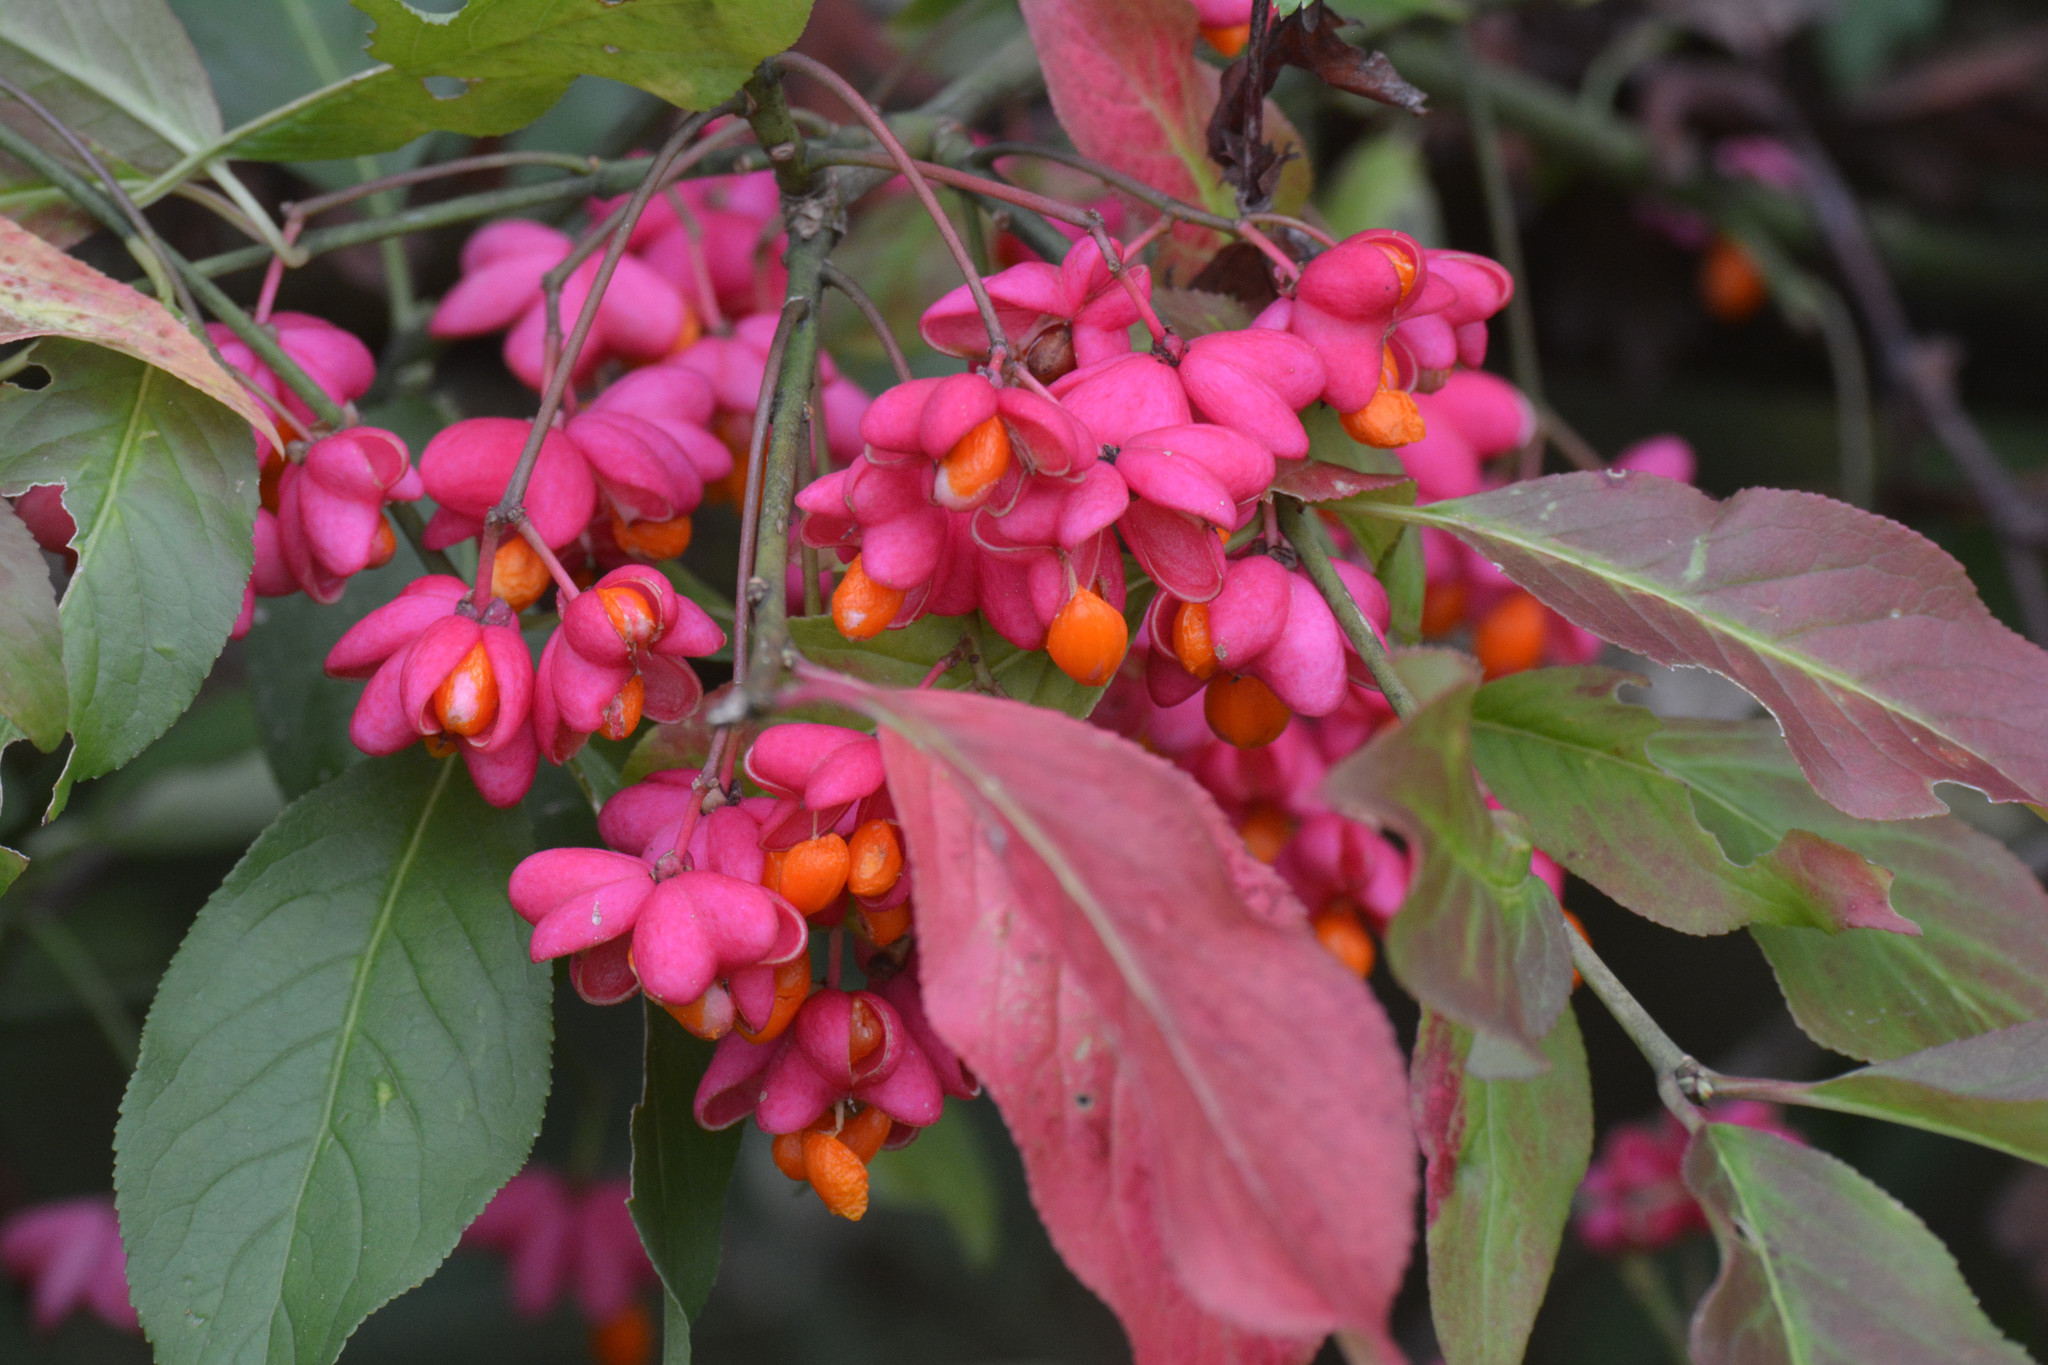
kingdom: Plantae
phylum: Tracheophyta
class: Magnoliopsida
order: Celastrales
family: Celastraceae
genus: Euonymus
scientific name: Euonymus europaeus
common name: Spindle
